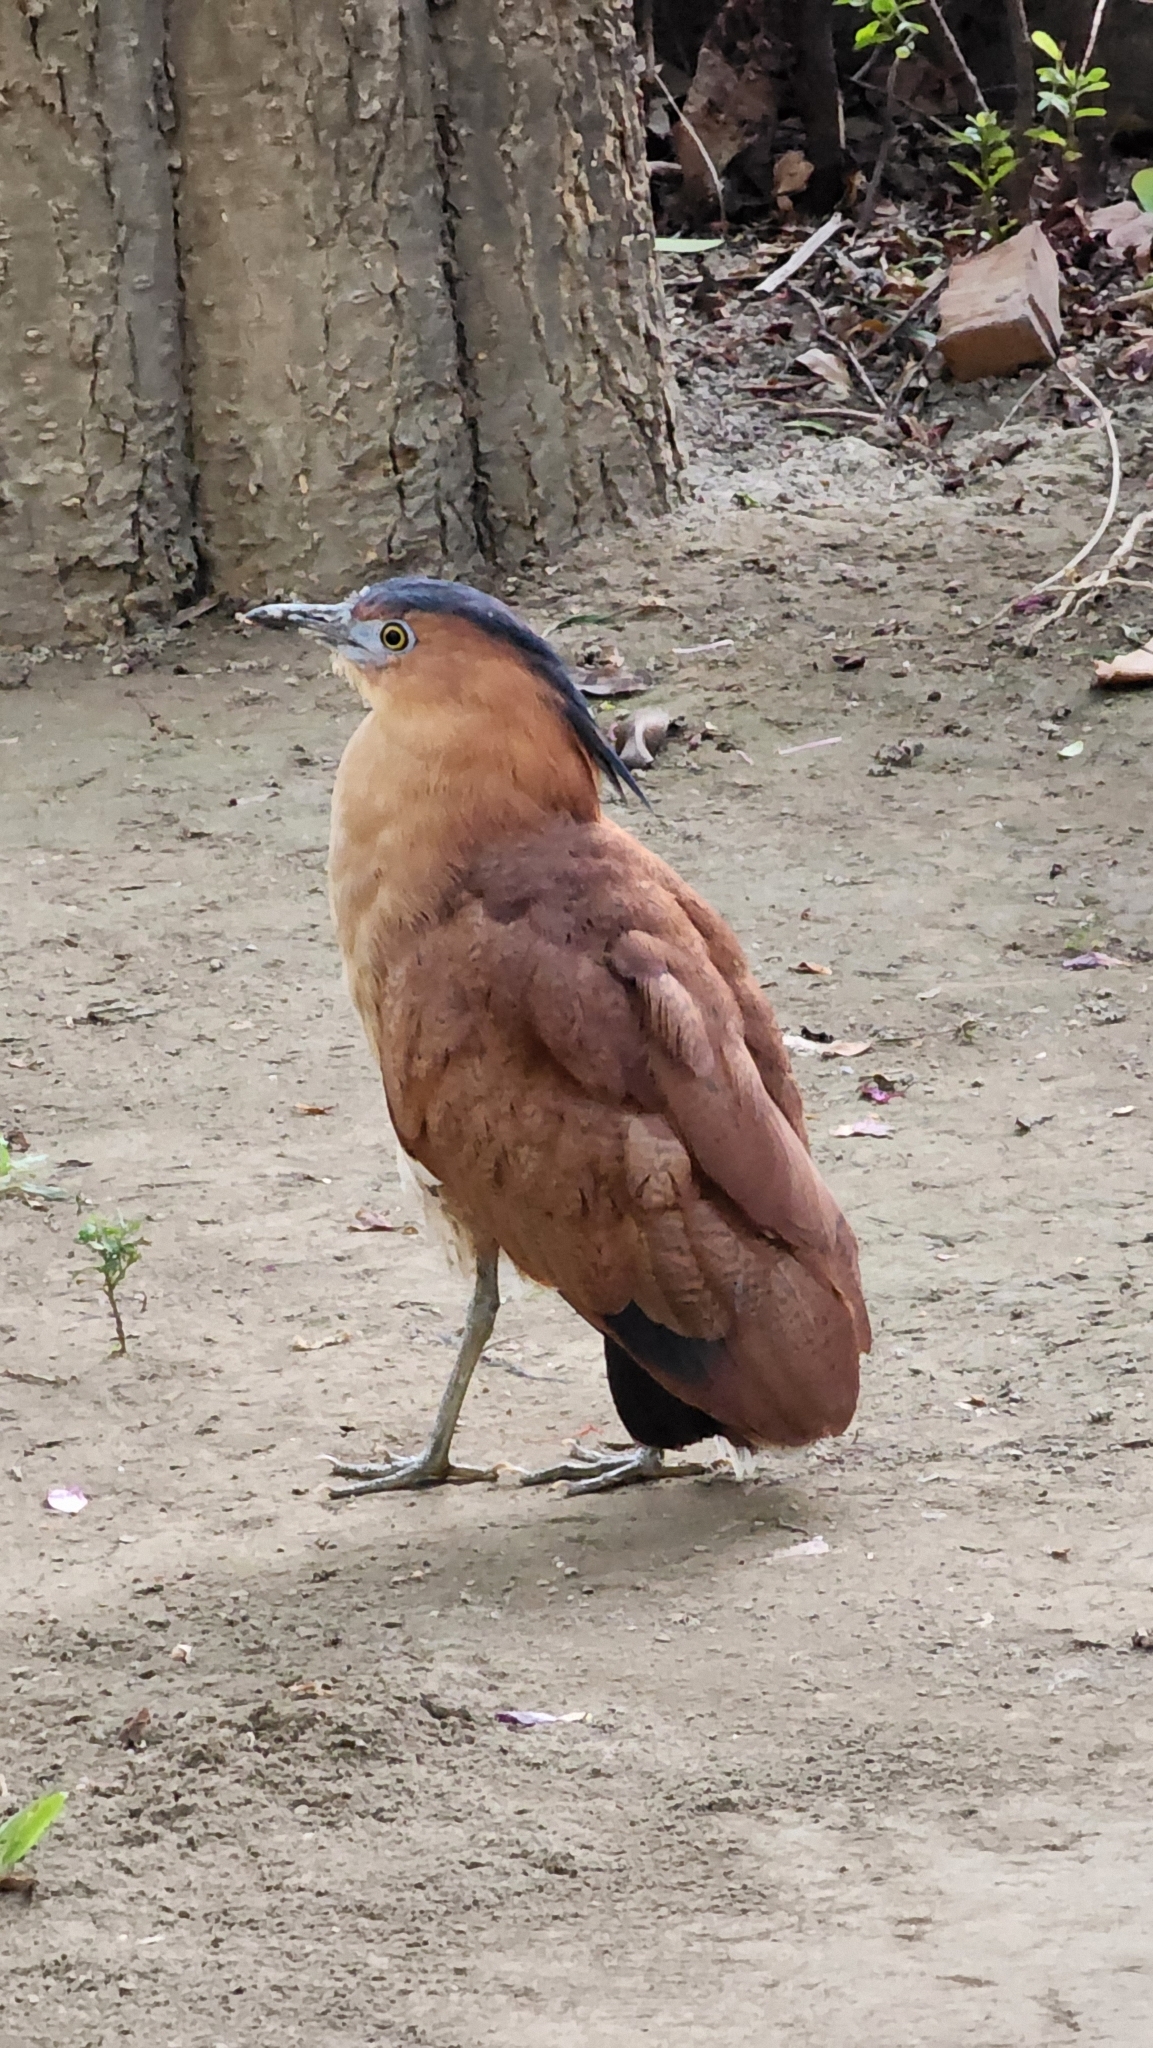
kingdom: Animalia
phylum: Chordata
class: Aves
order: Pelecaniformes
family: Ardeidae
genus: Gorsachius
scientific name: Gorsachius melanolophus
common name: Malayan night heron
